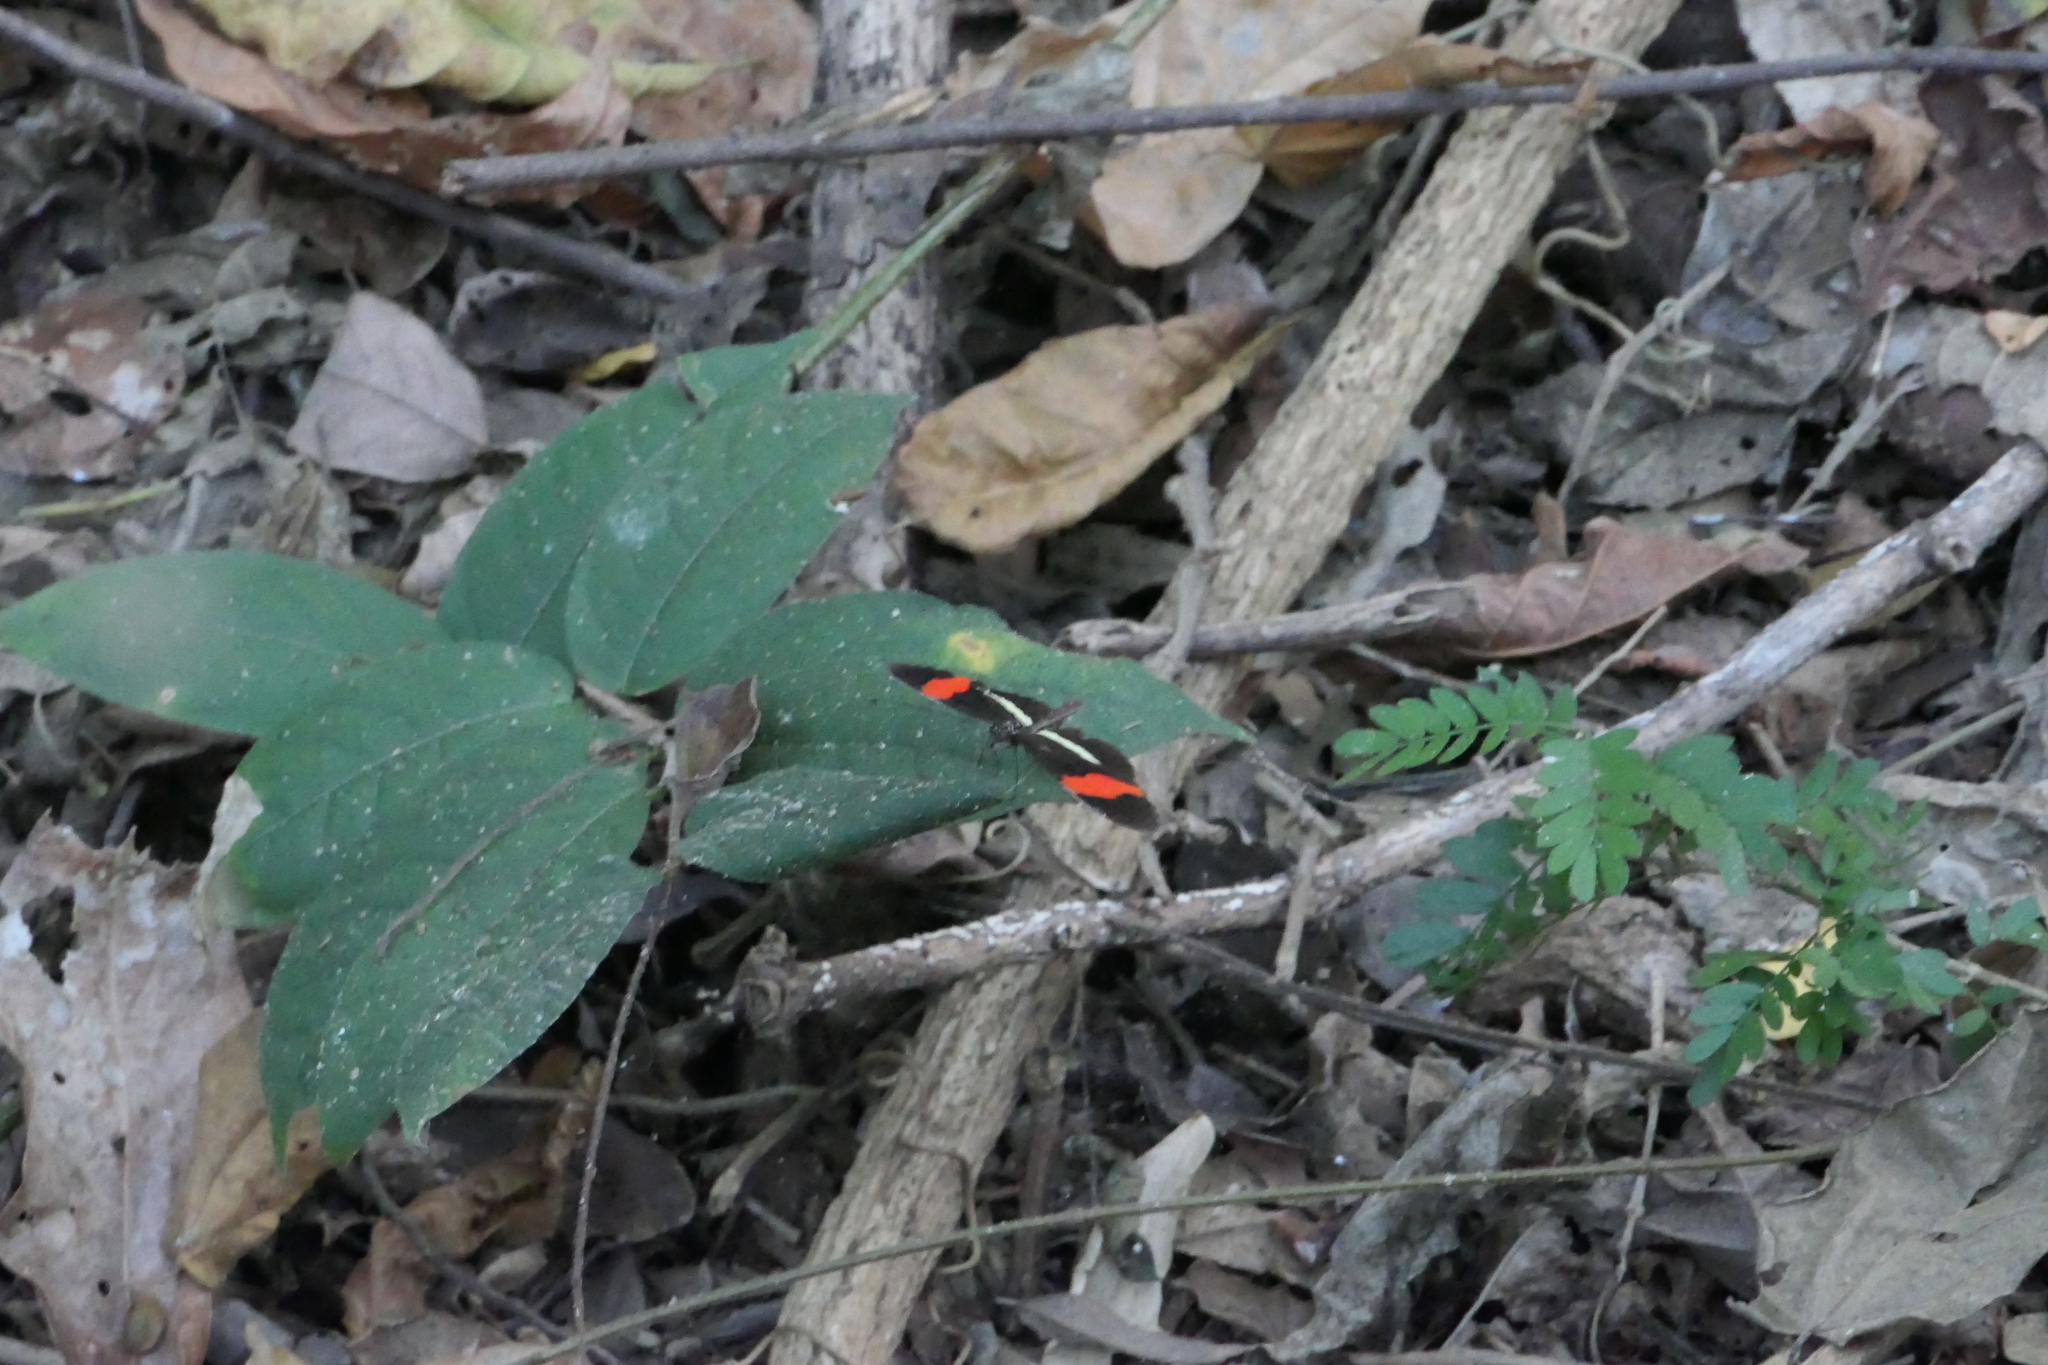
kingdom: Animalia
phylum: Arthropoda
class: Insecta
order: Lepidoptera
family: Nymphalidae
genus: Heliconius
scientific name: Heliconius erato
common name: Common patch longwing
